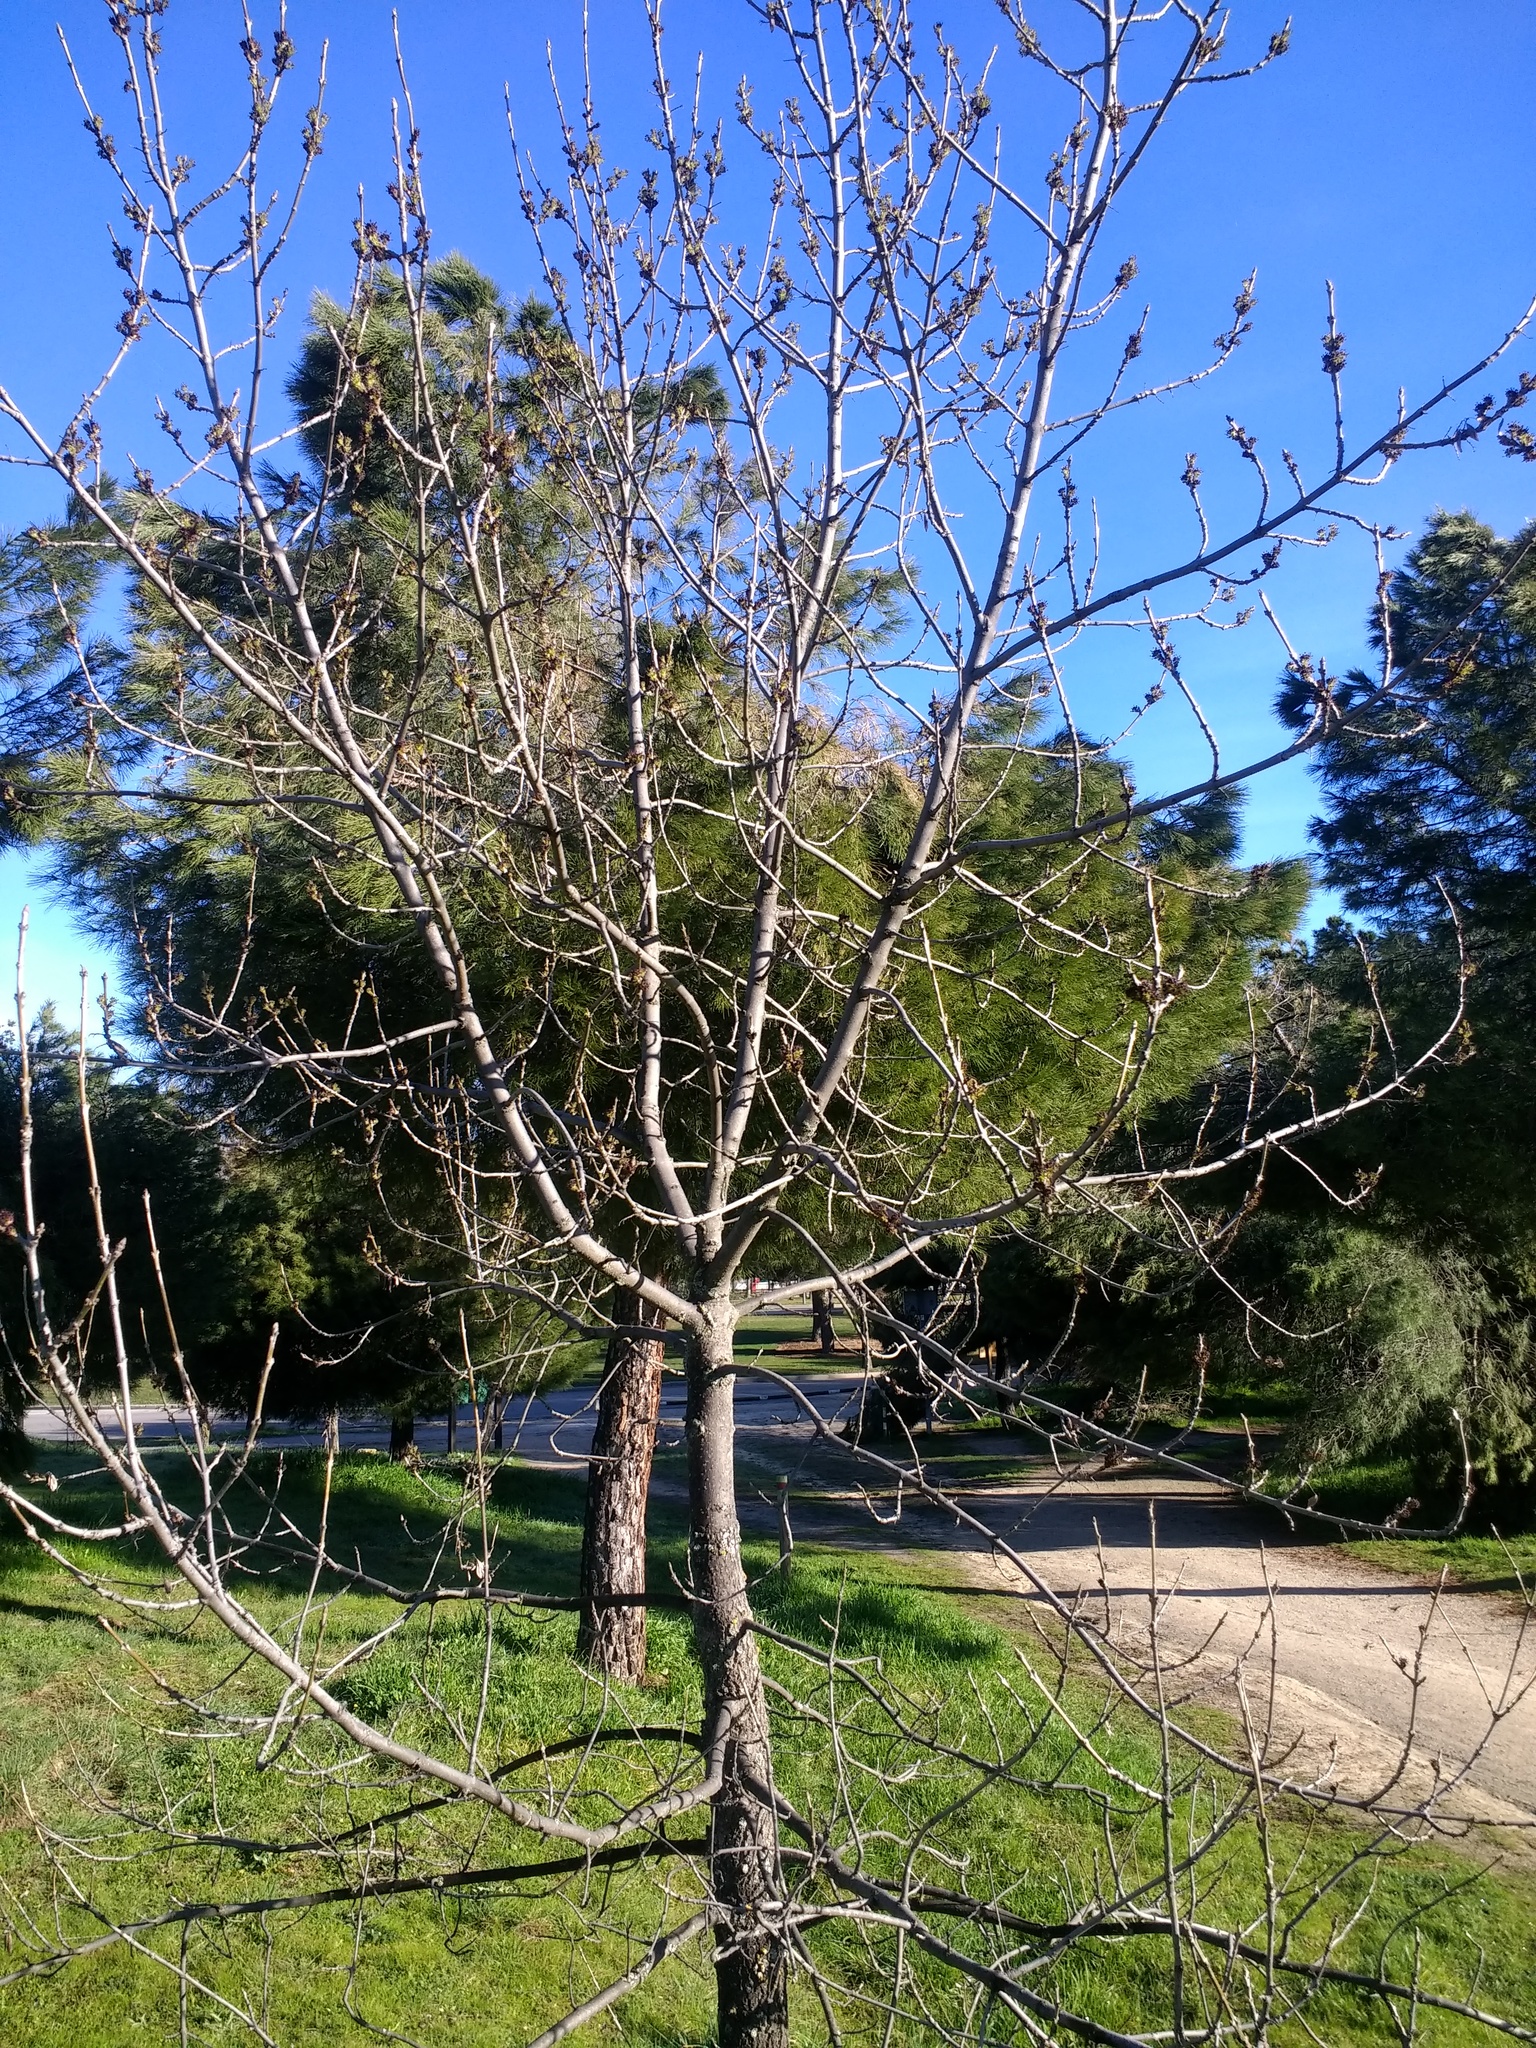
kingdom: Plantae
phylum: Tracheophyta
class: Magnoliopsida
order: Lamiales
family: Oleaceae
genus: Fraxinus
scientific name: Fraxinus angustifolia
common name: Narrow-leafed ash
